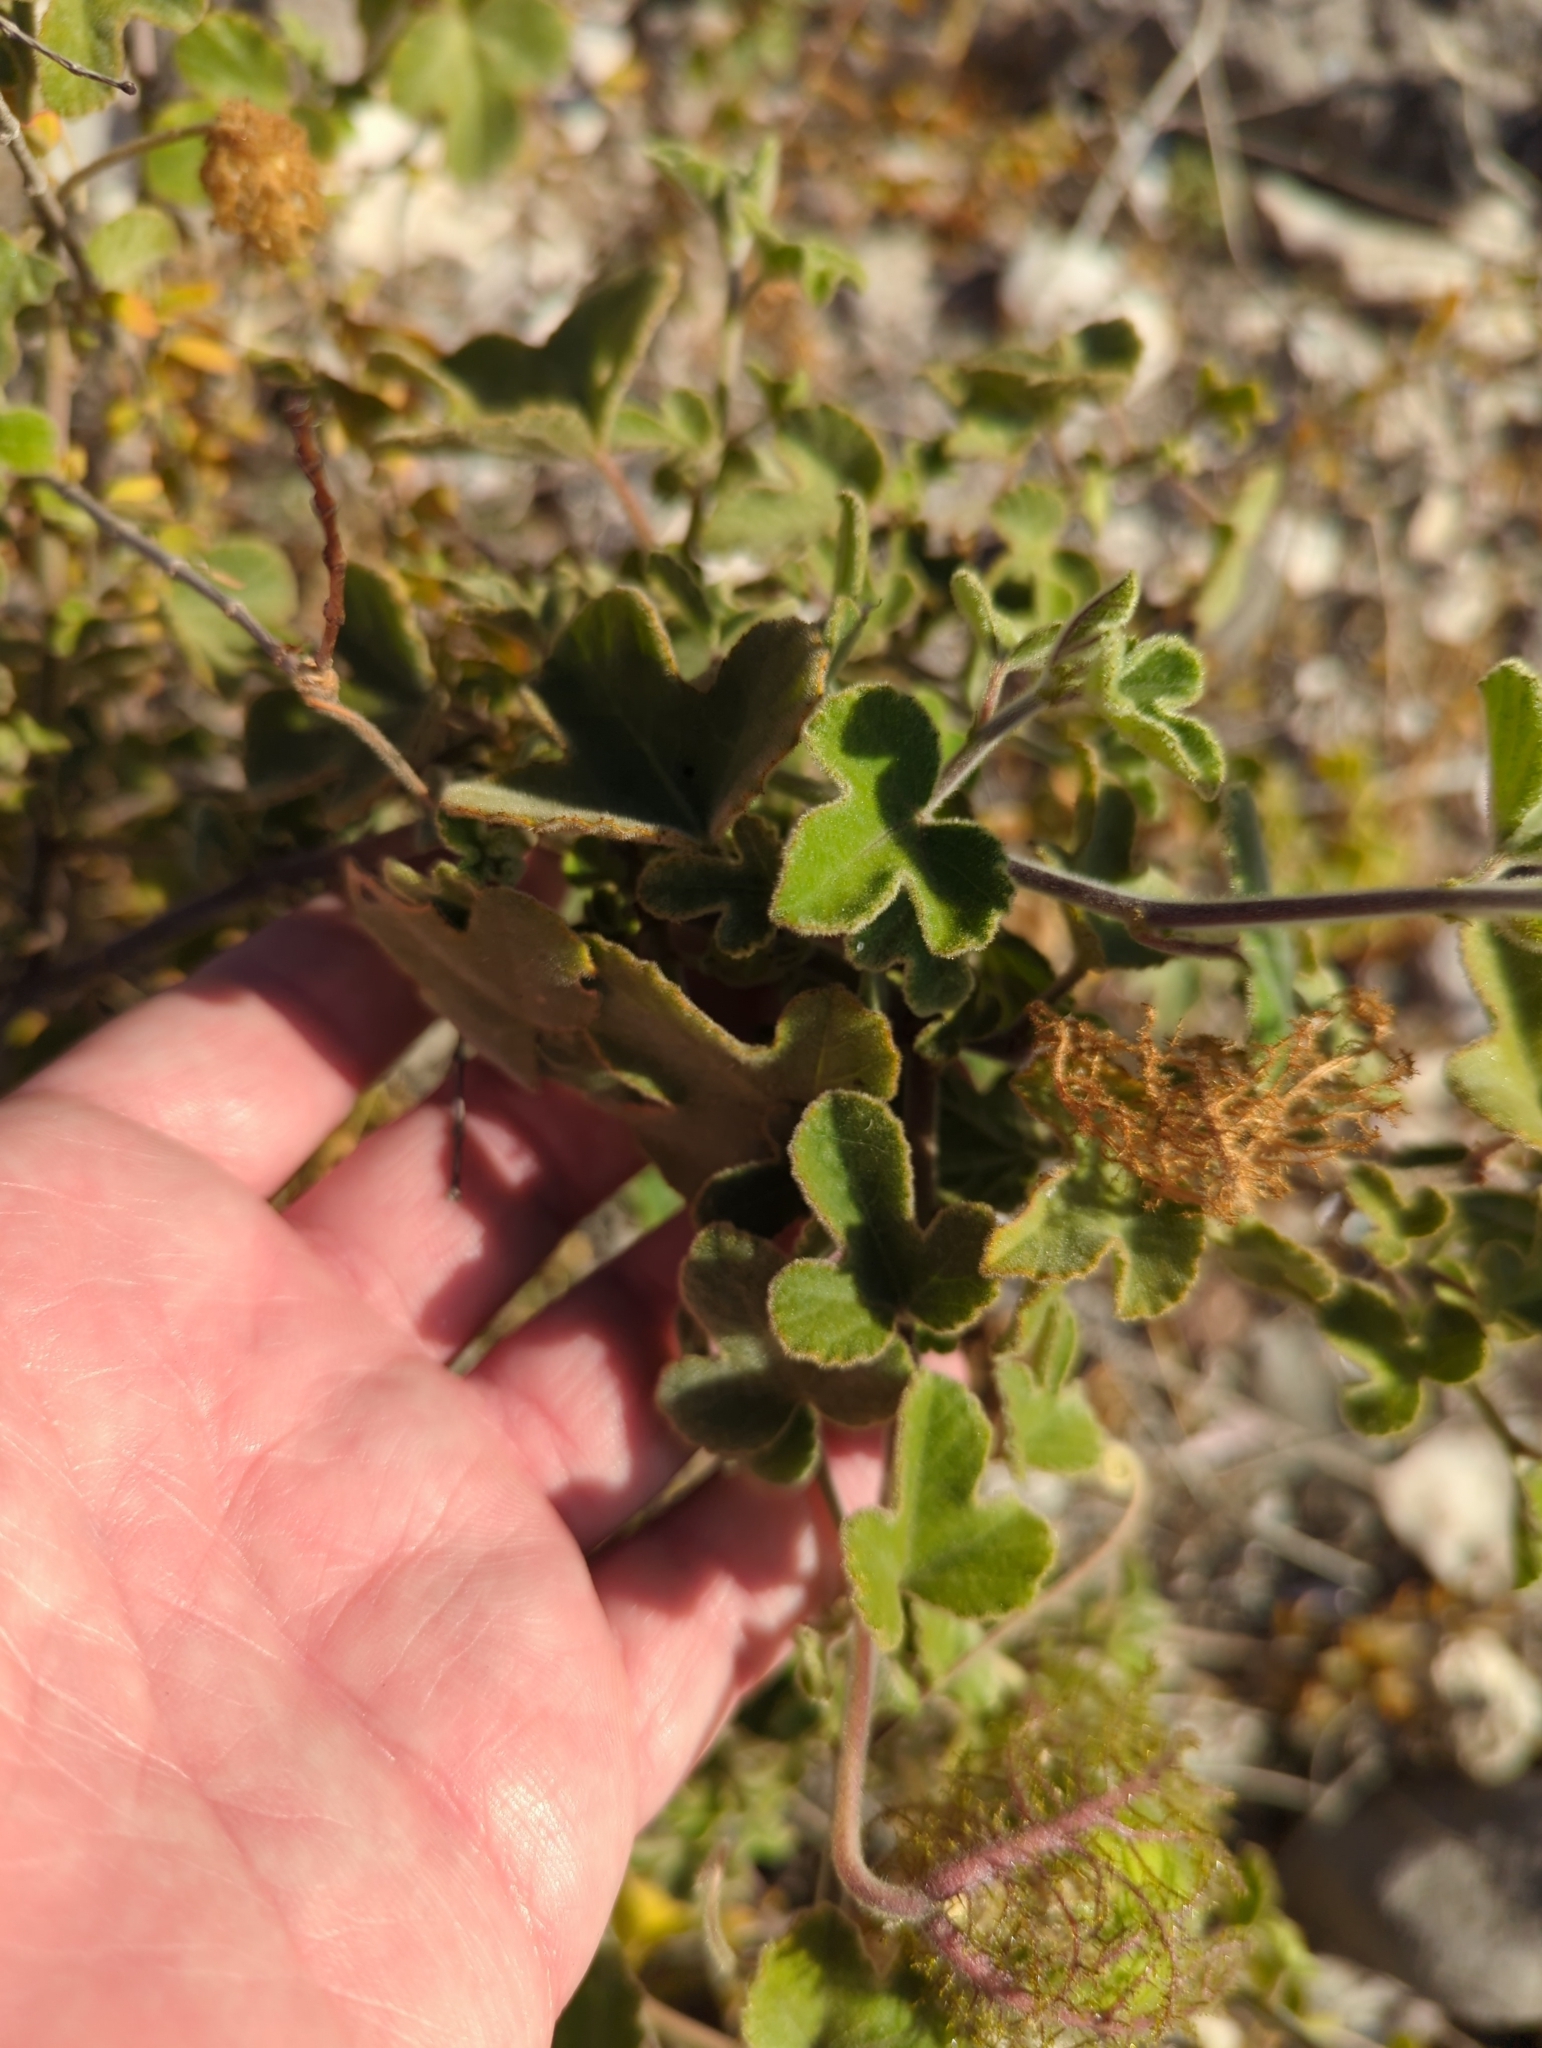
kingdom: Plantae
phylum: Tracheophyta
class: Magnoliopsida
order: Malpighiales
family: Passifloraceae
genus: Passiflora
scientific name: Passiflora arida
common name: Desert passionflower
